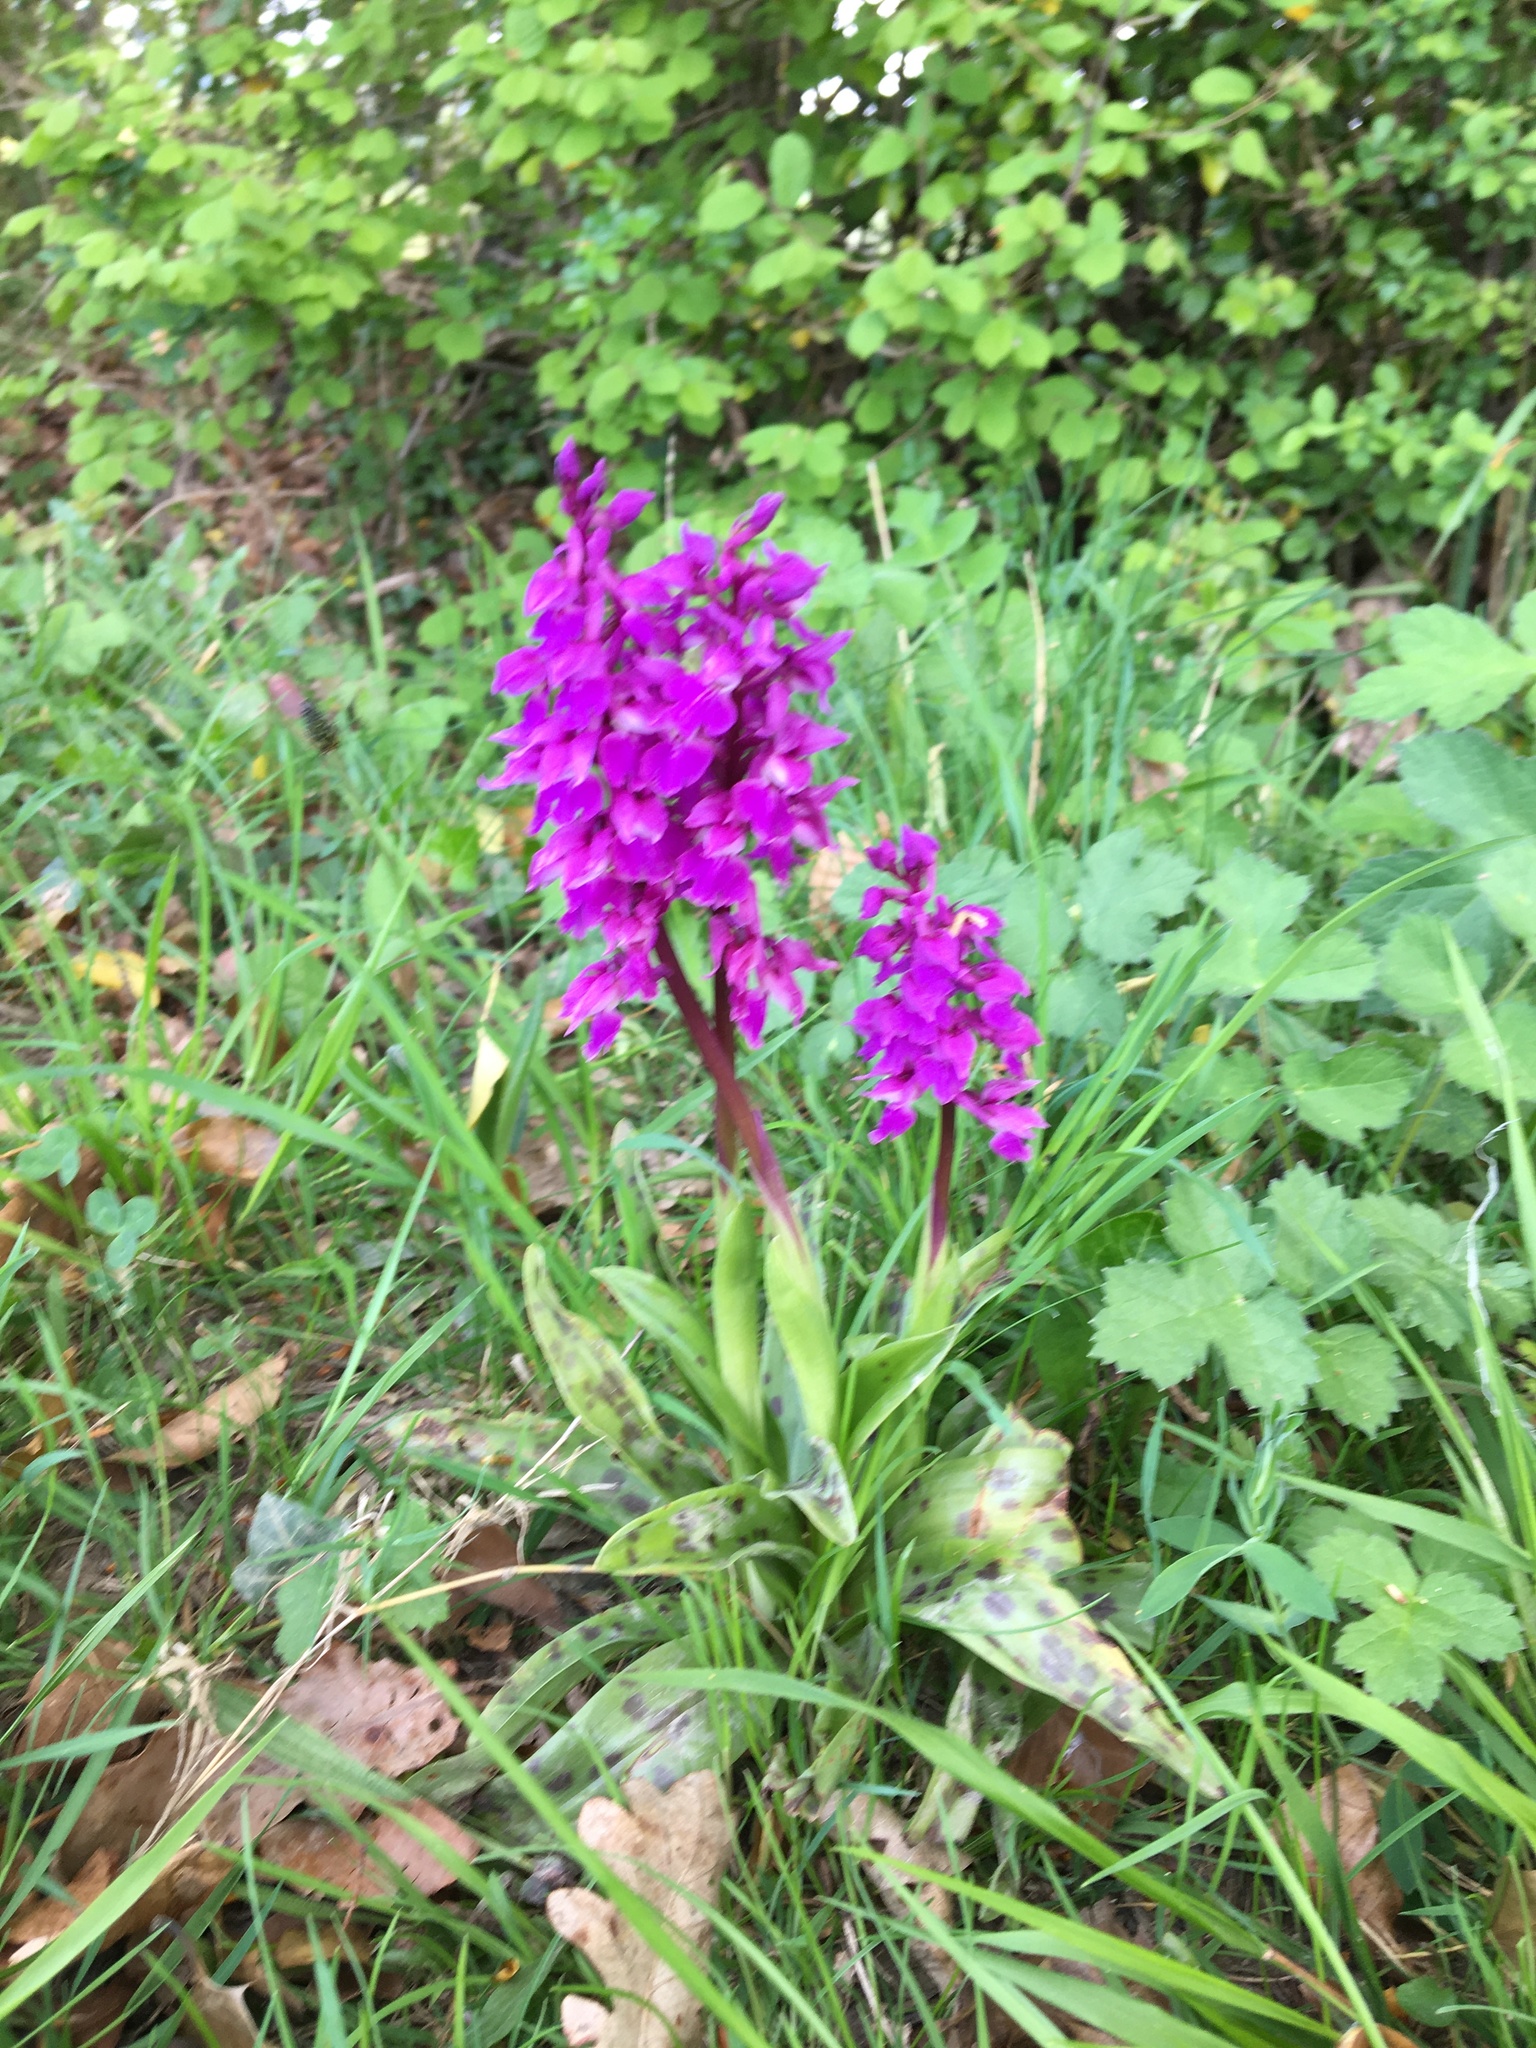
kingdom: Plantae
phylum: Tracheophyta
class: Liliopsida
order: Asparagales
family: Orchidaceae
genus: Orchis
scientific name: Orchis mascula
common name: Early-purple orchid
